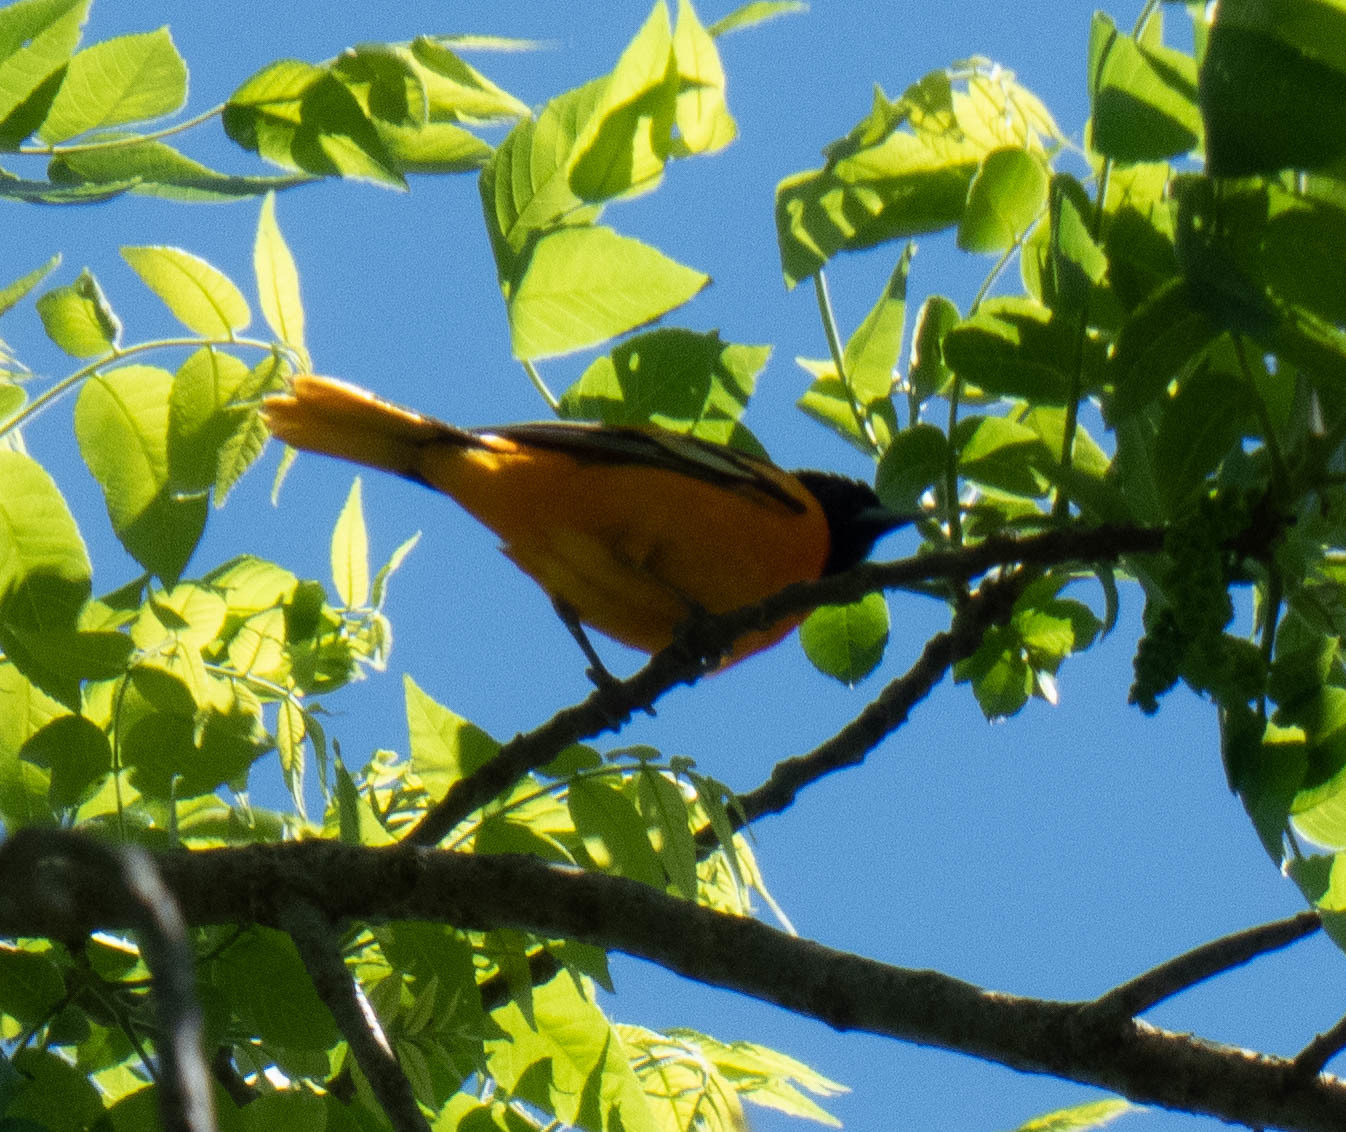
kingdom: Animalia
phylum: Chordata
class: Aves
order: Passeriformes
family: Icteridae
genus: Icterus
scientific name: Icterus galbula
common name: Baltimore oriole
